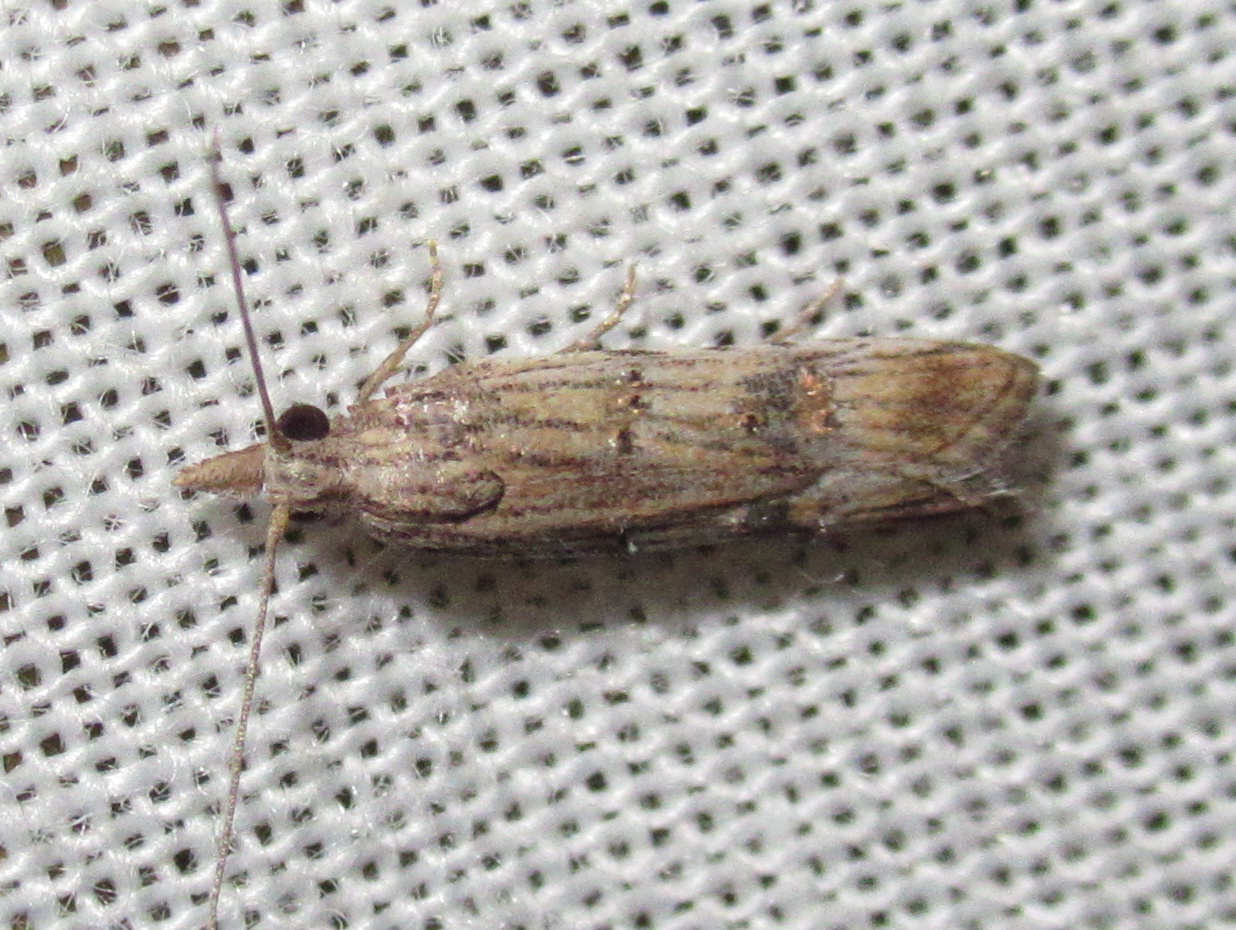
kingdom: Animalia
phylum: Arthropoda
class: Insecta
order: Lepidoptera
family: Carposinidae
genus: Carposina
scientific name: Carposina neurophorella
